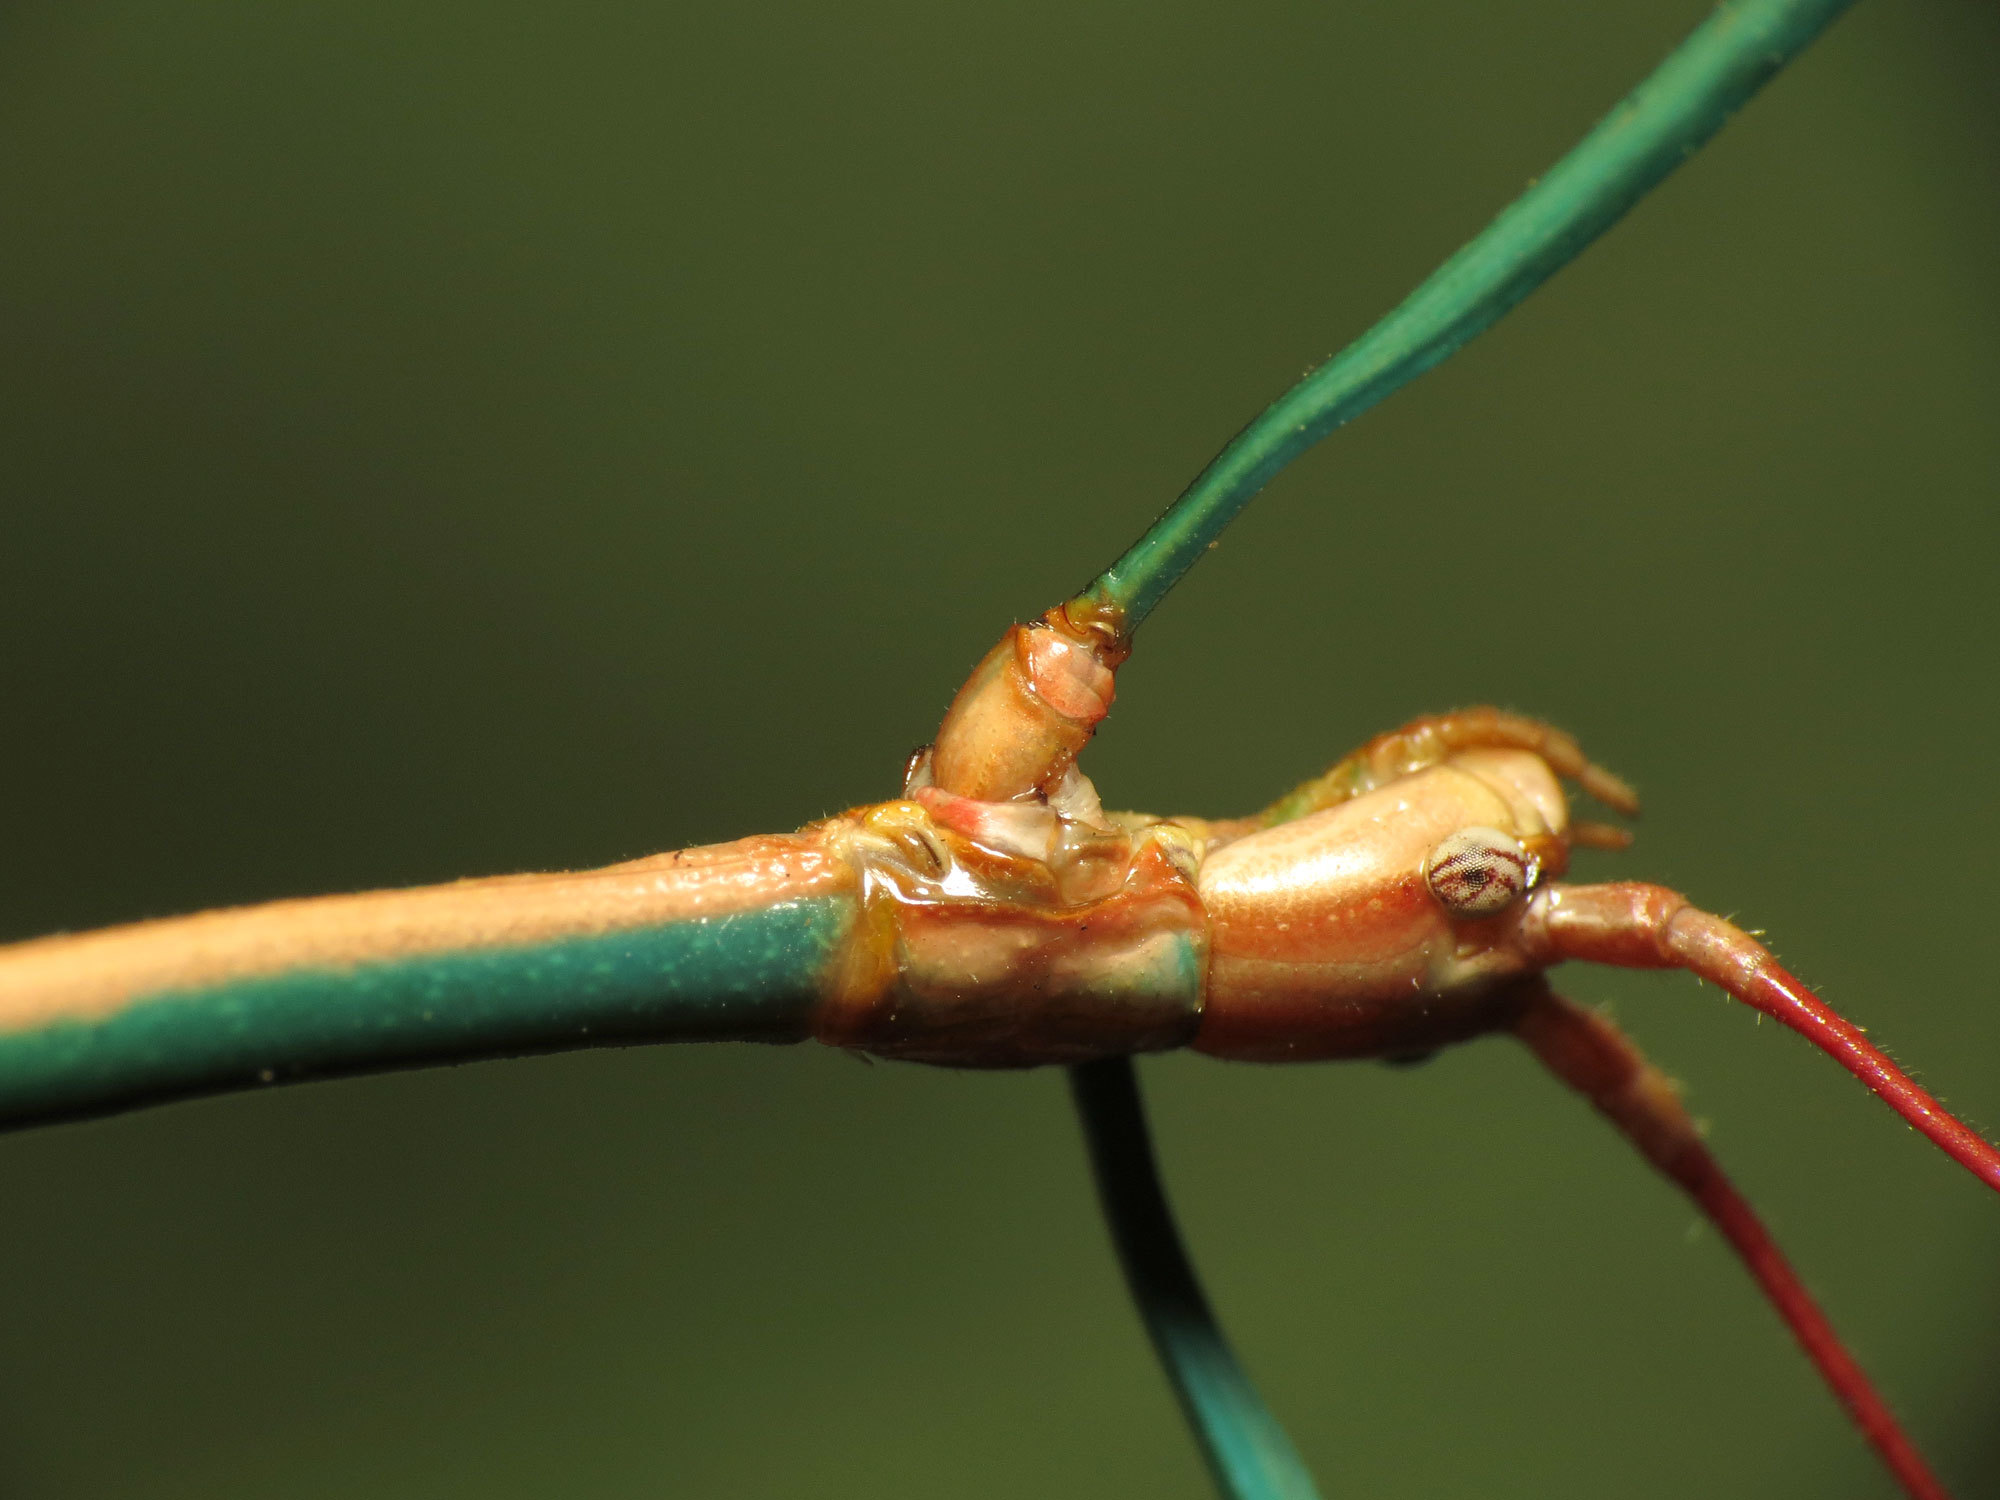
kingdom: Animalia
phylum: Arthropoda
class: Insecta
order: Phasmida
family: Diapheromeridae
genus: Diapheromera
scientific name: Diapheromera arizonensis
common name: Arizona walkingstick
